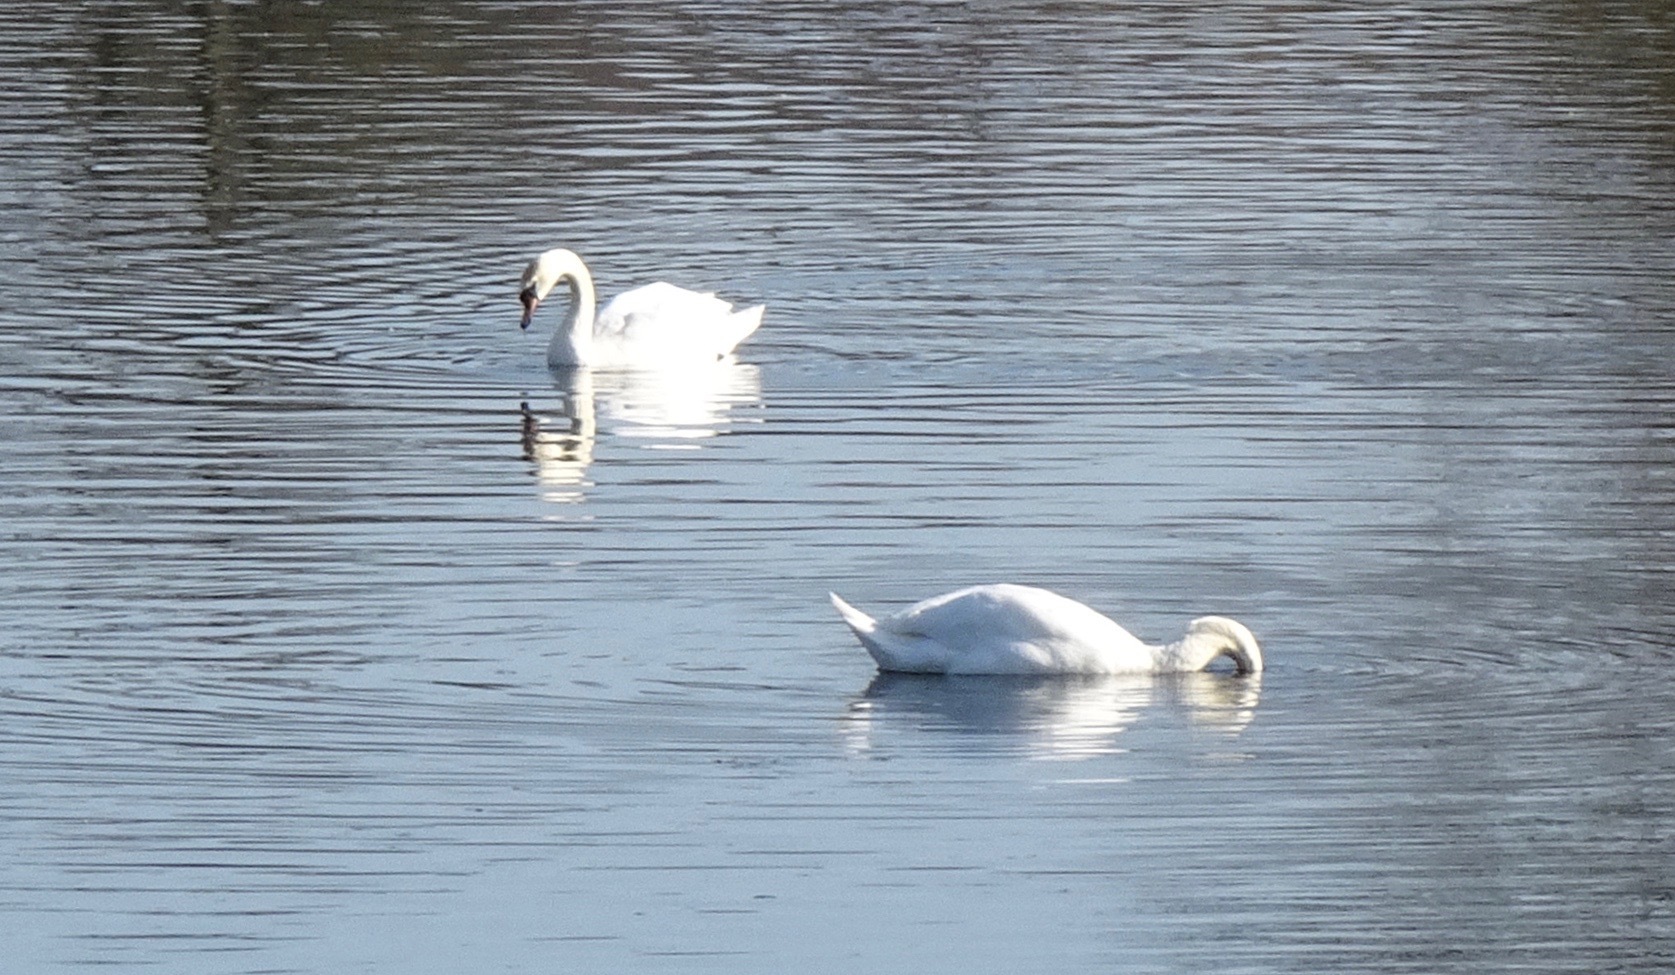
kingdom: Animalia
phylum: Chordata
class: Aves
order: Anseriformes
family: Anatidae
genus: Cygnus
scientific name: Cygnus olor
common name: Mute swan
